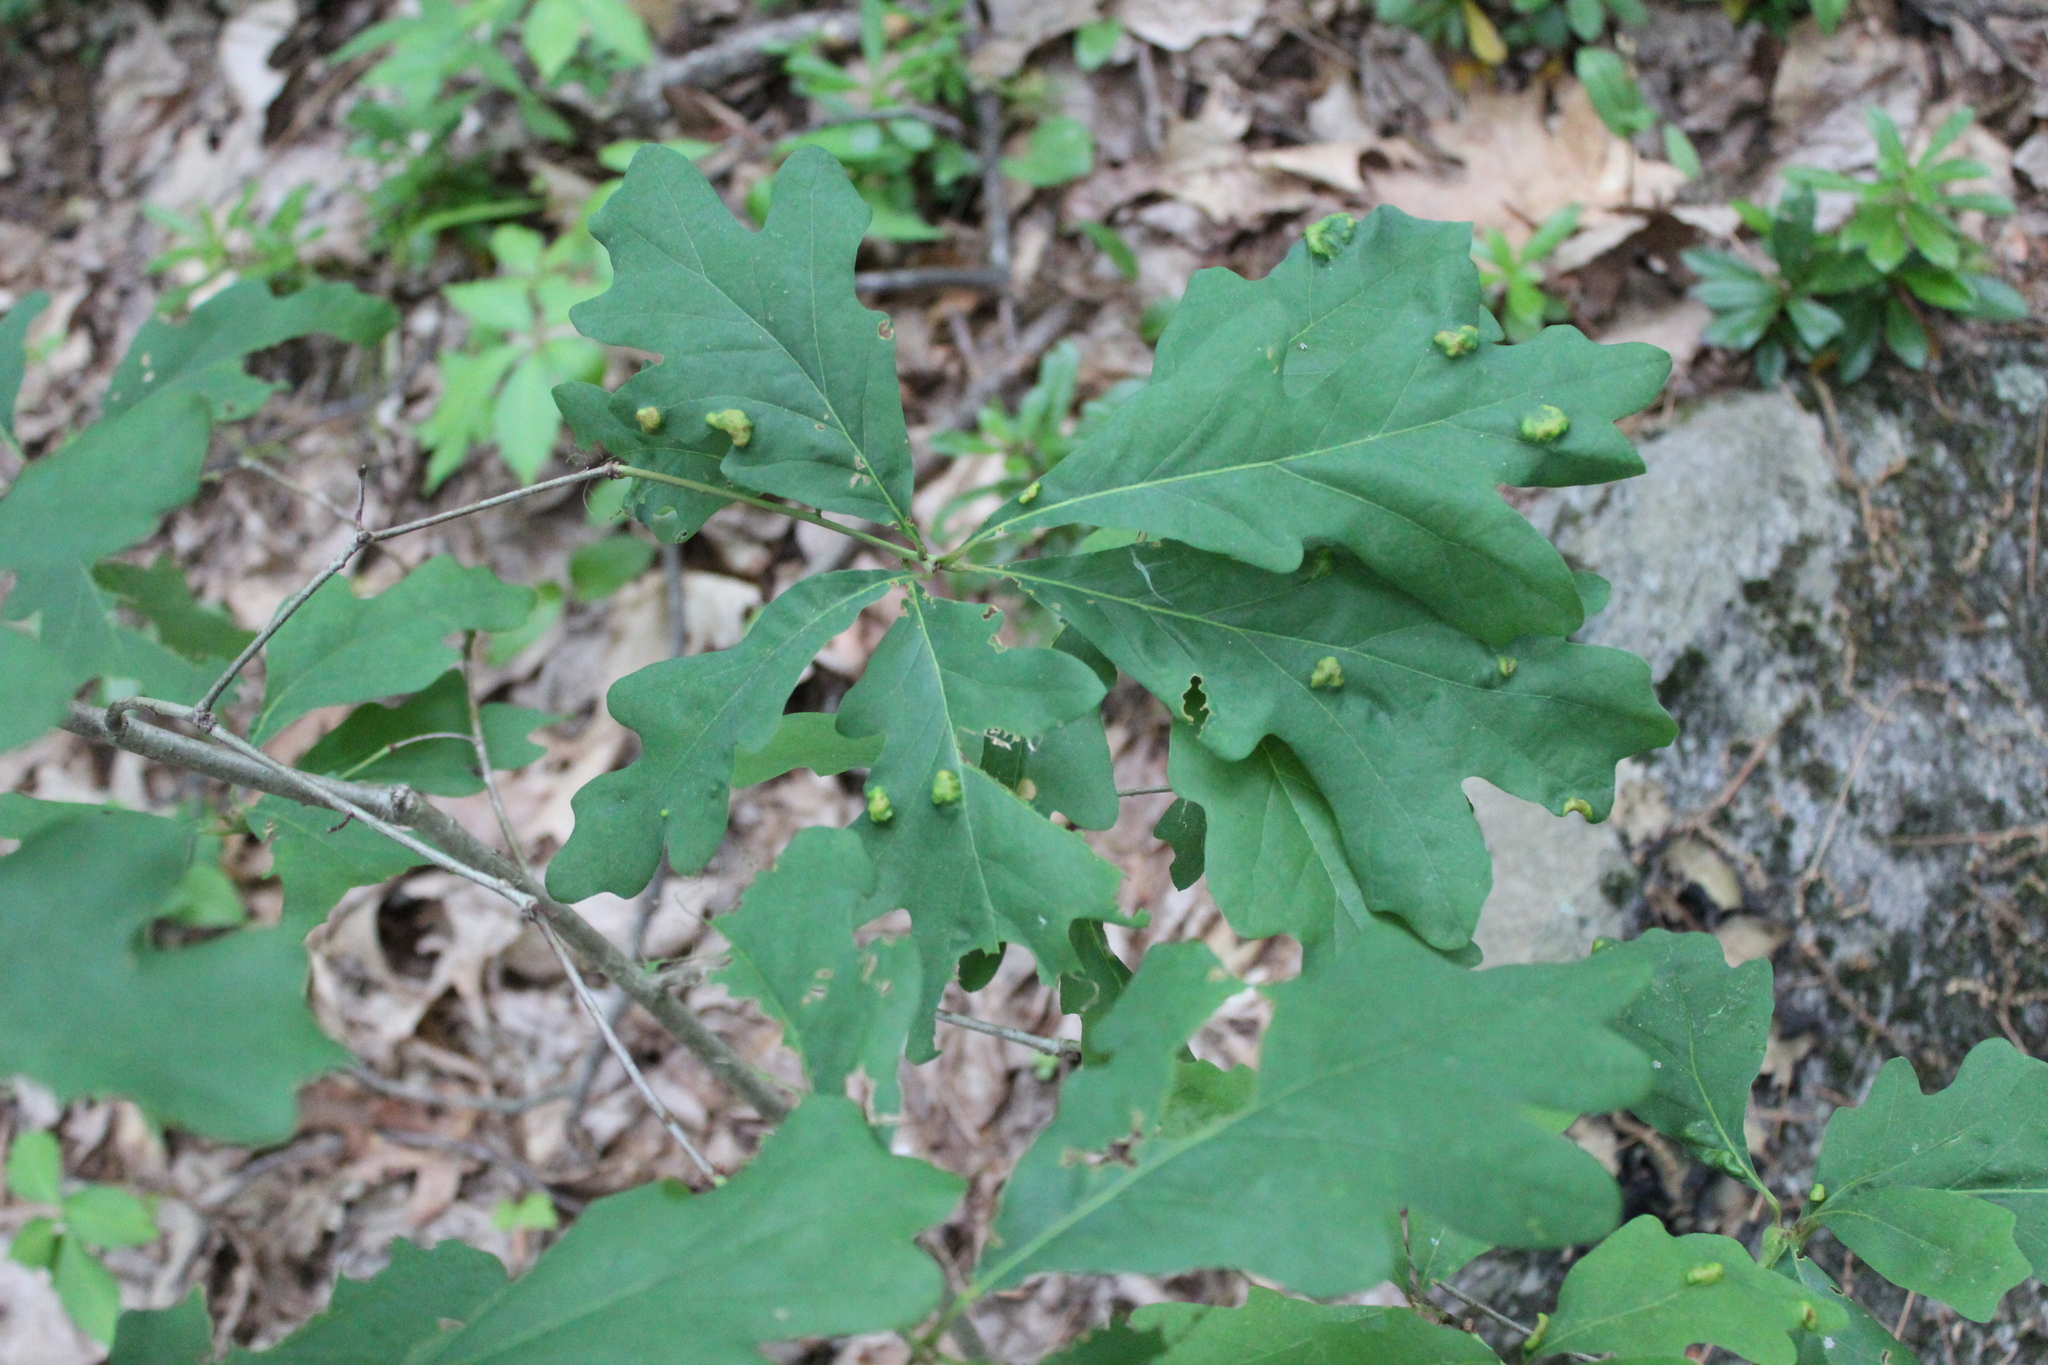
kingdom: Plantae
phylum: Tracheophyta
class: Magnoliopsida
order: Fagales
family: Fagaceae
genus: Quercus
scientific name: Quercus alba
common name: White oak
